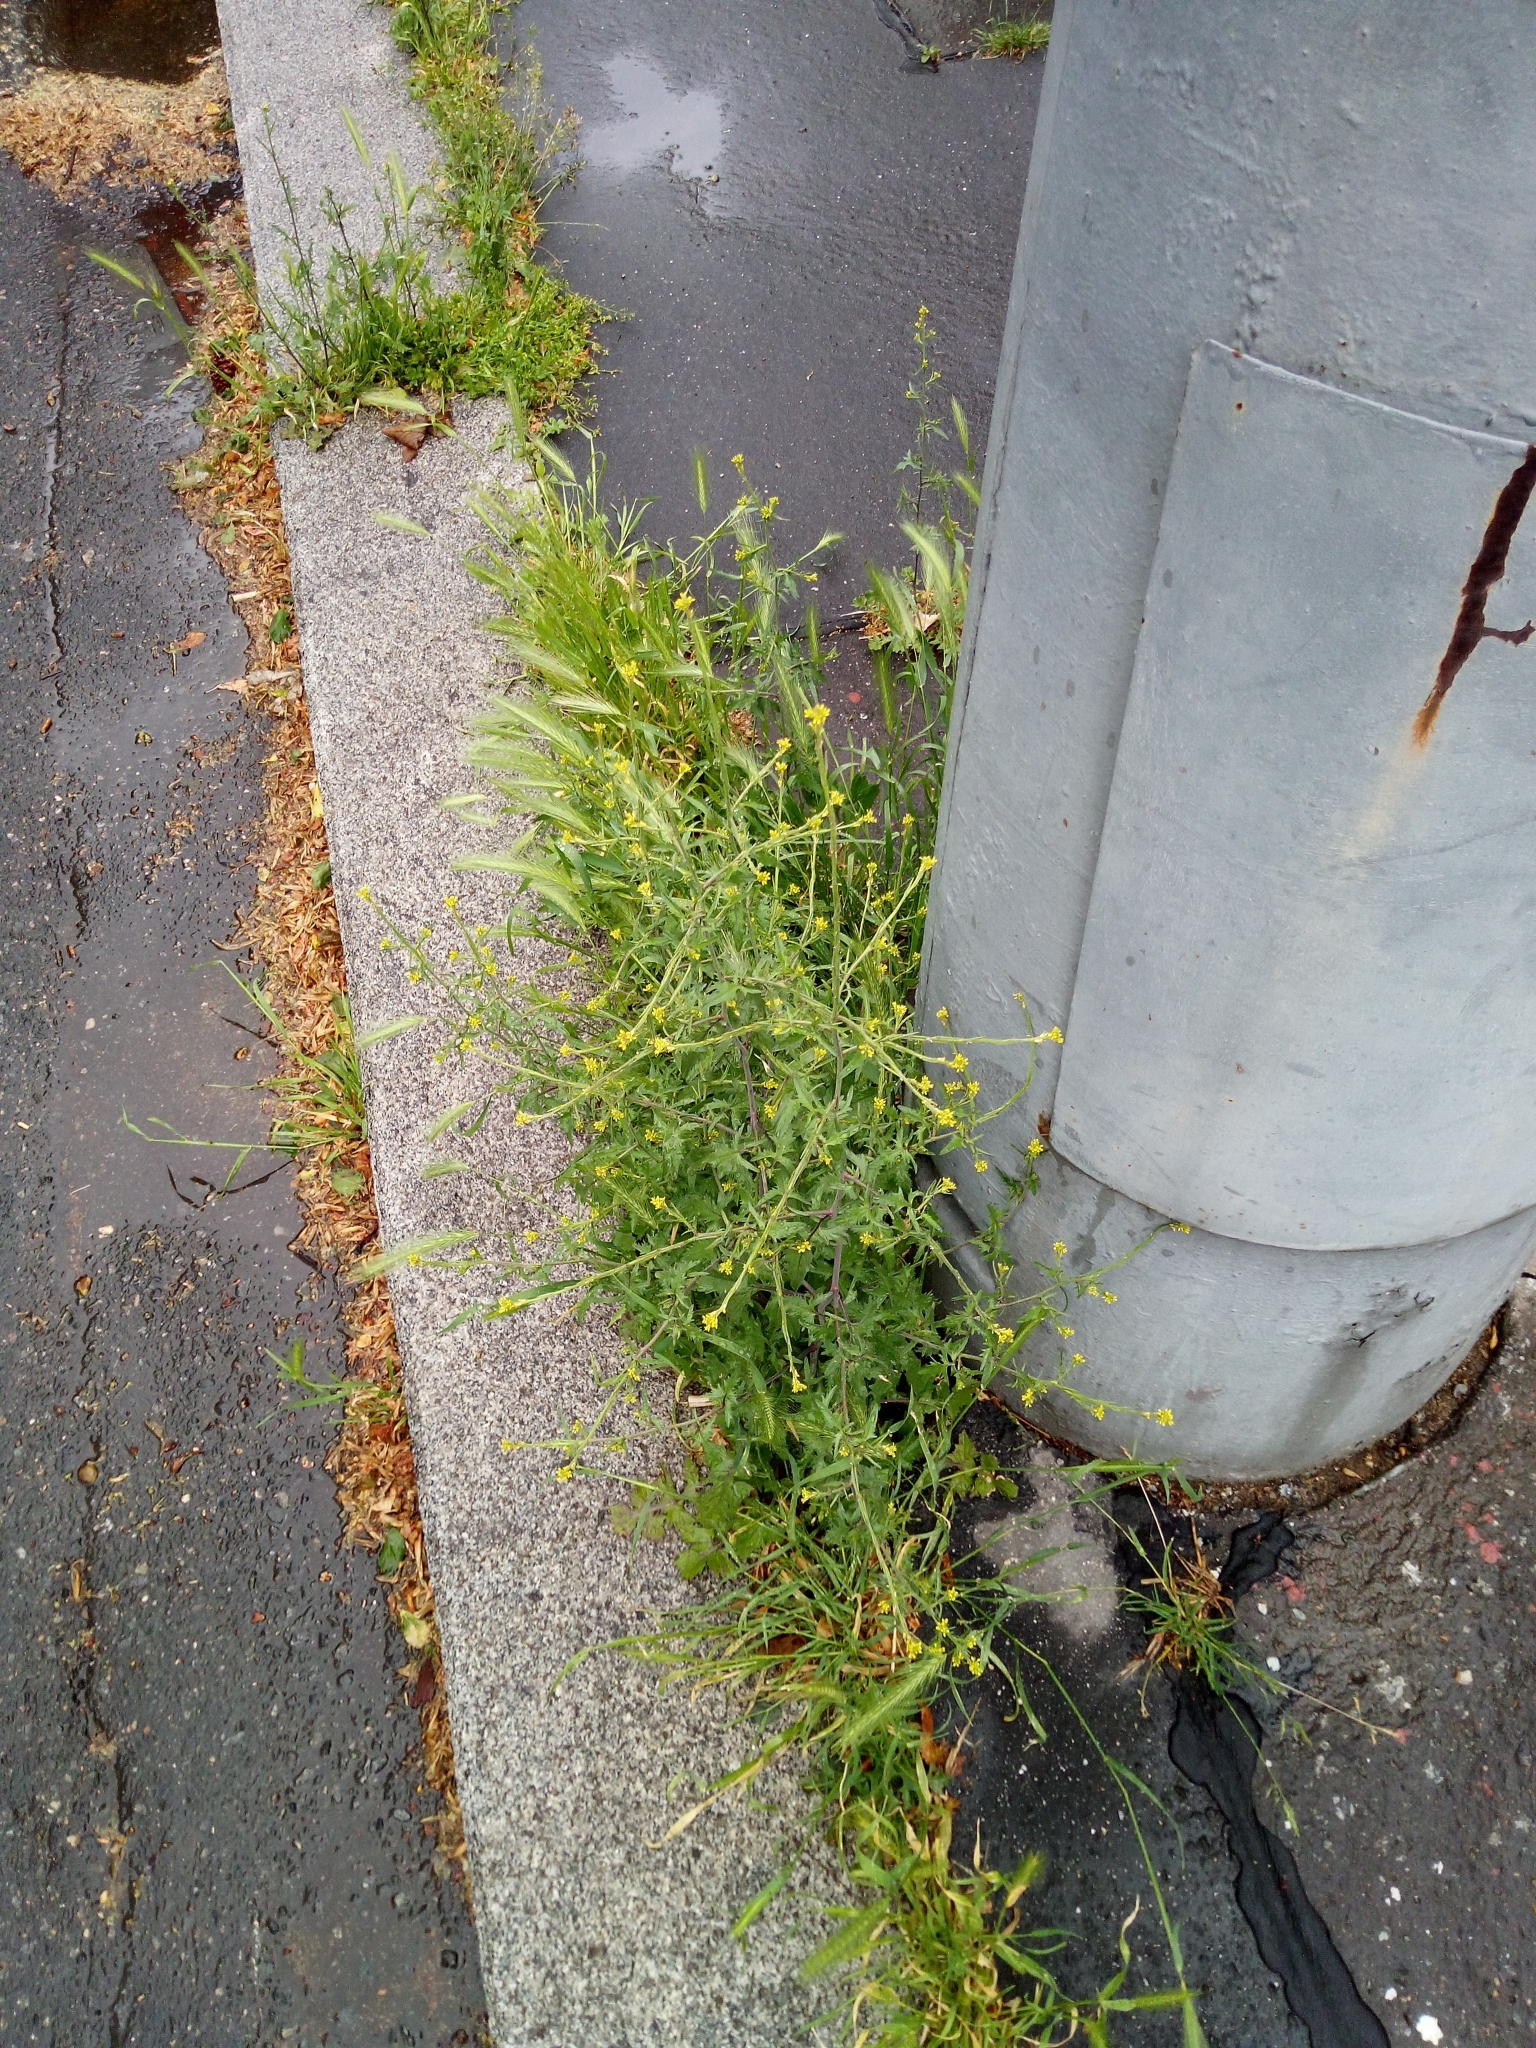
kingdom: Plantae
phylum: Tracheophyta
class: Magnoliopsida
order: Brassicales
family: Brassicaceae
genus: Sisymbrium
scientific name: Sisymbrium officinale
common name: Hedge mustard
